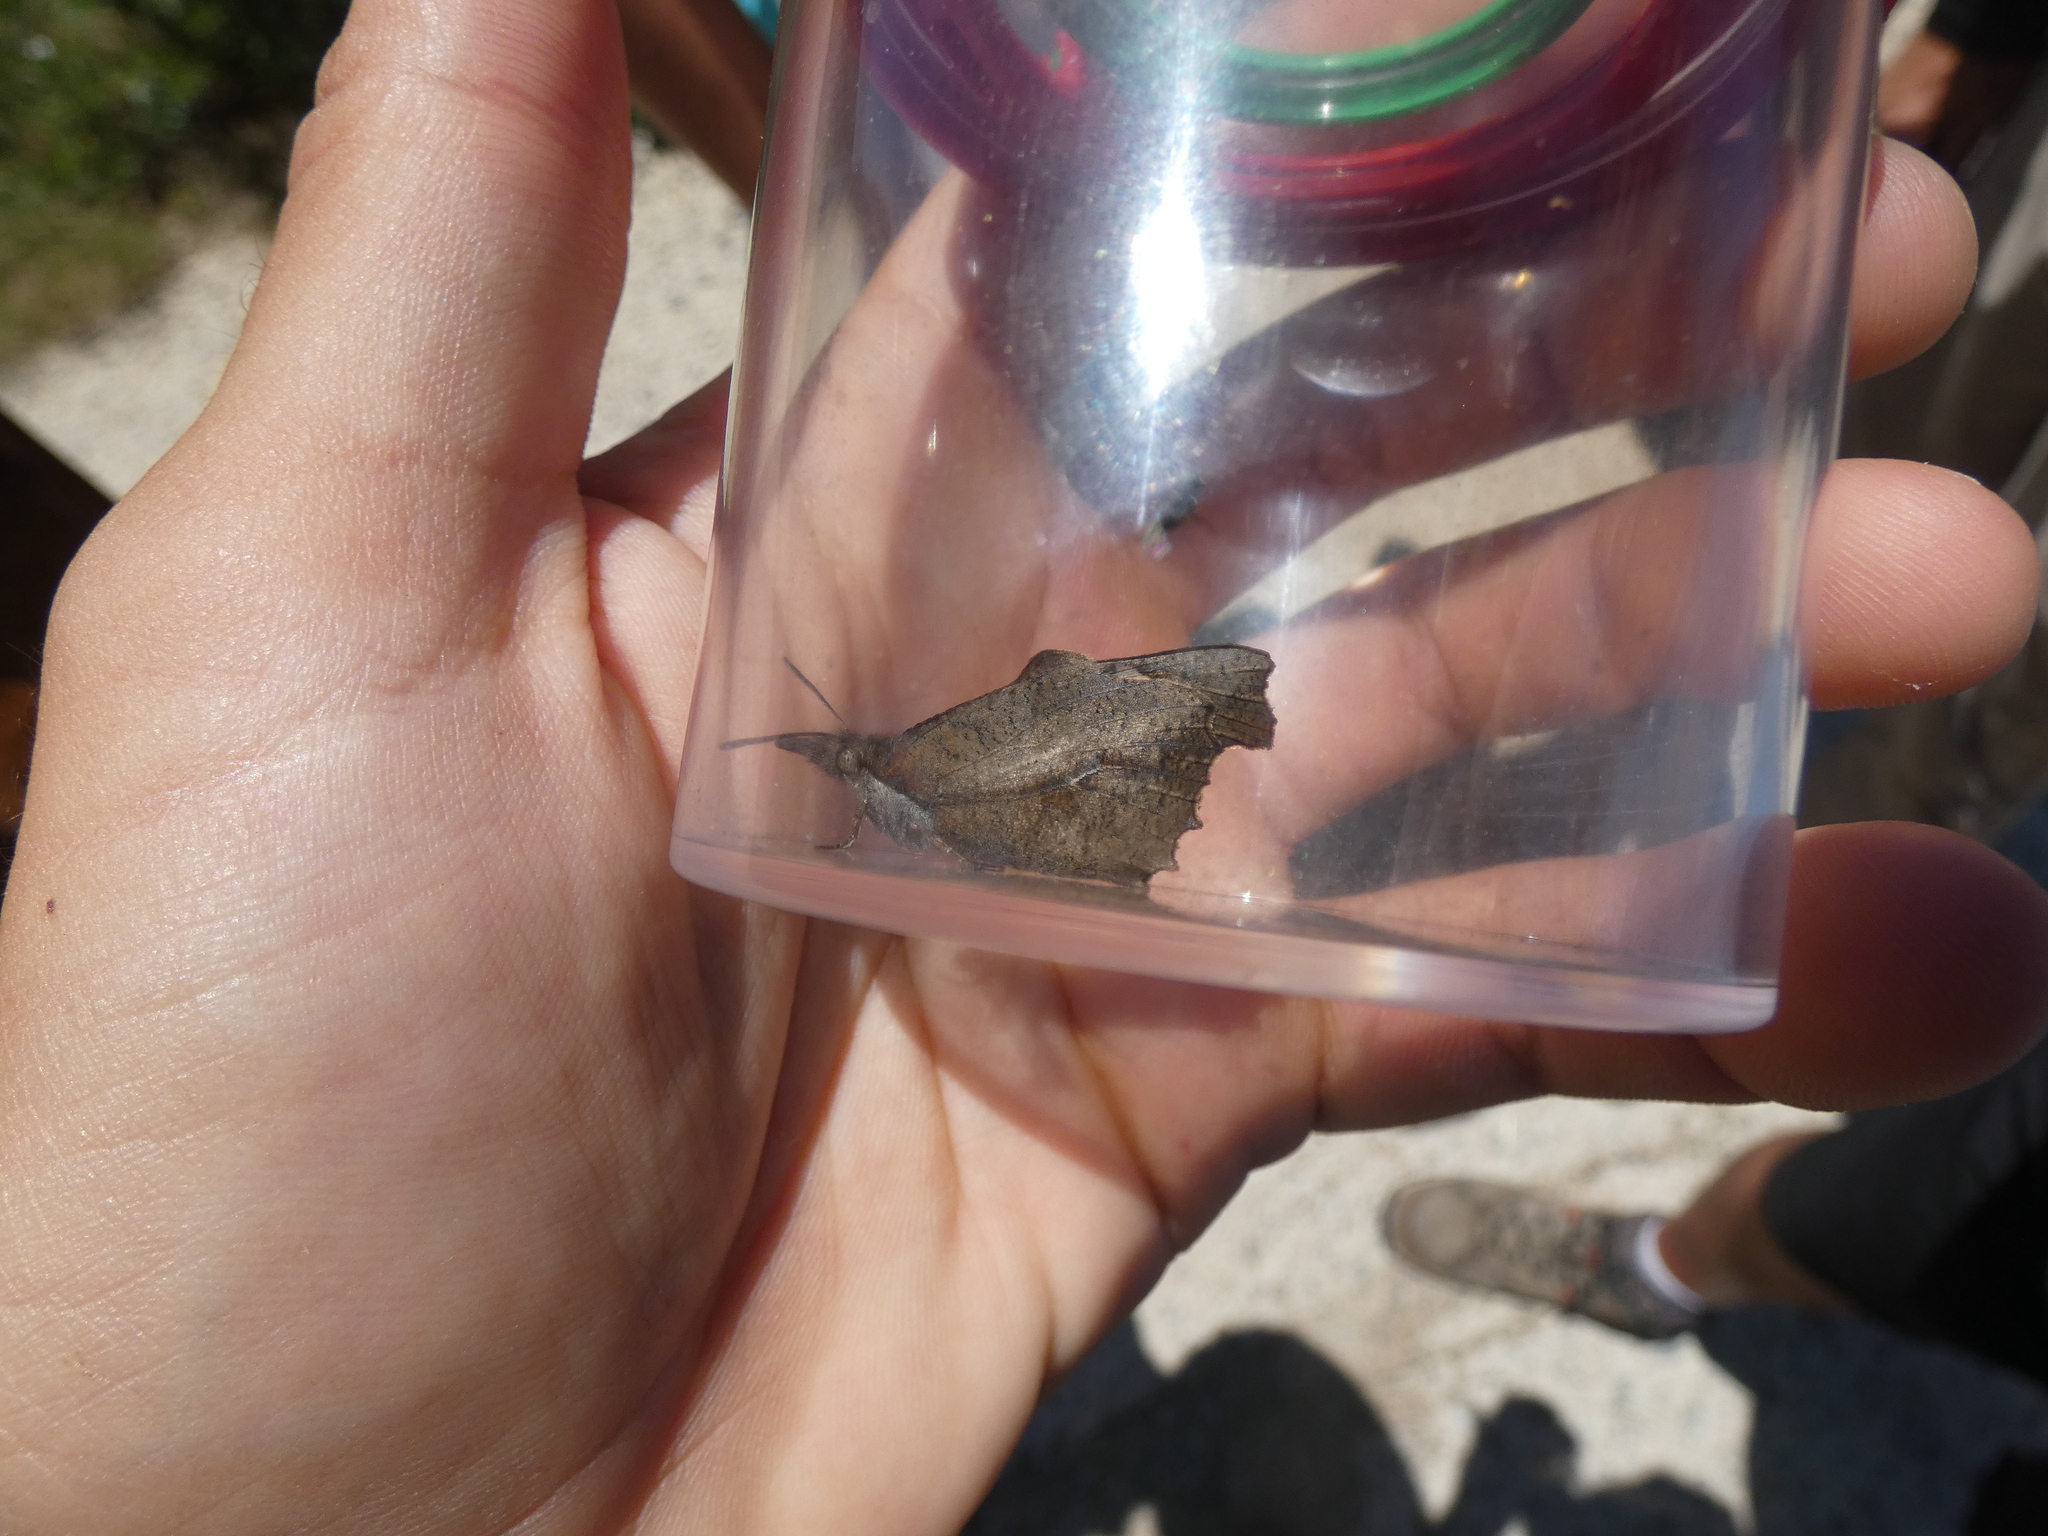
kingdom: Animalia
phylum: Arthropoda
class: Insecta
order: Lepidoptera
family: Nymphalidae
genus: Libythea
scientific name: Libythea celtis
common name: Nettle-tree butterfly
